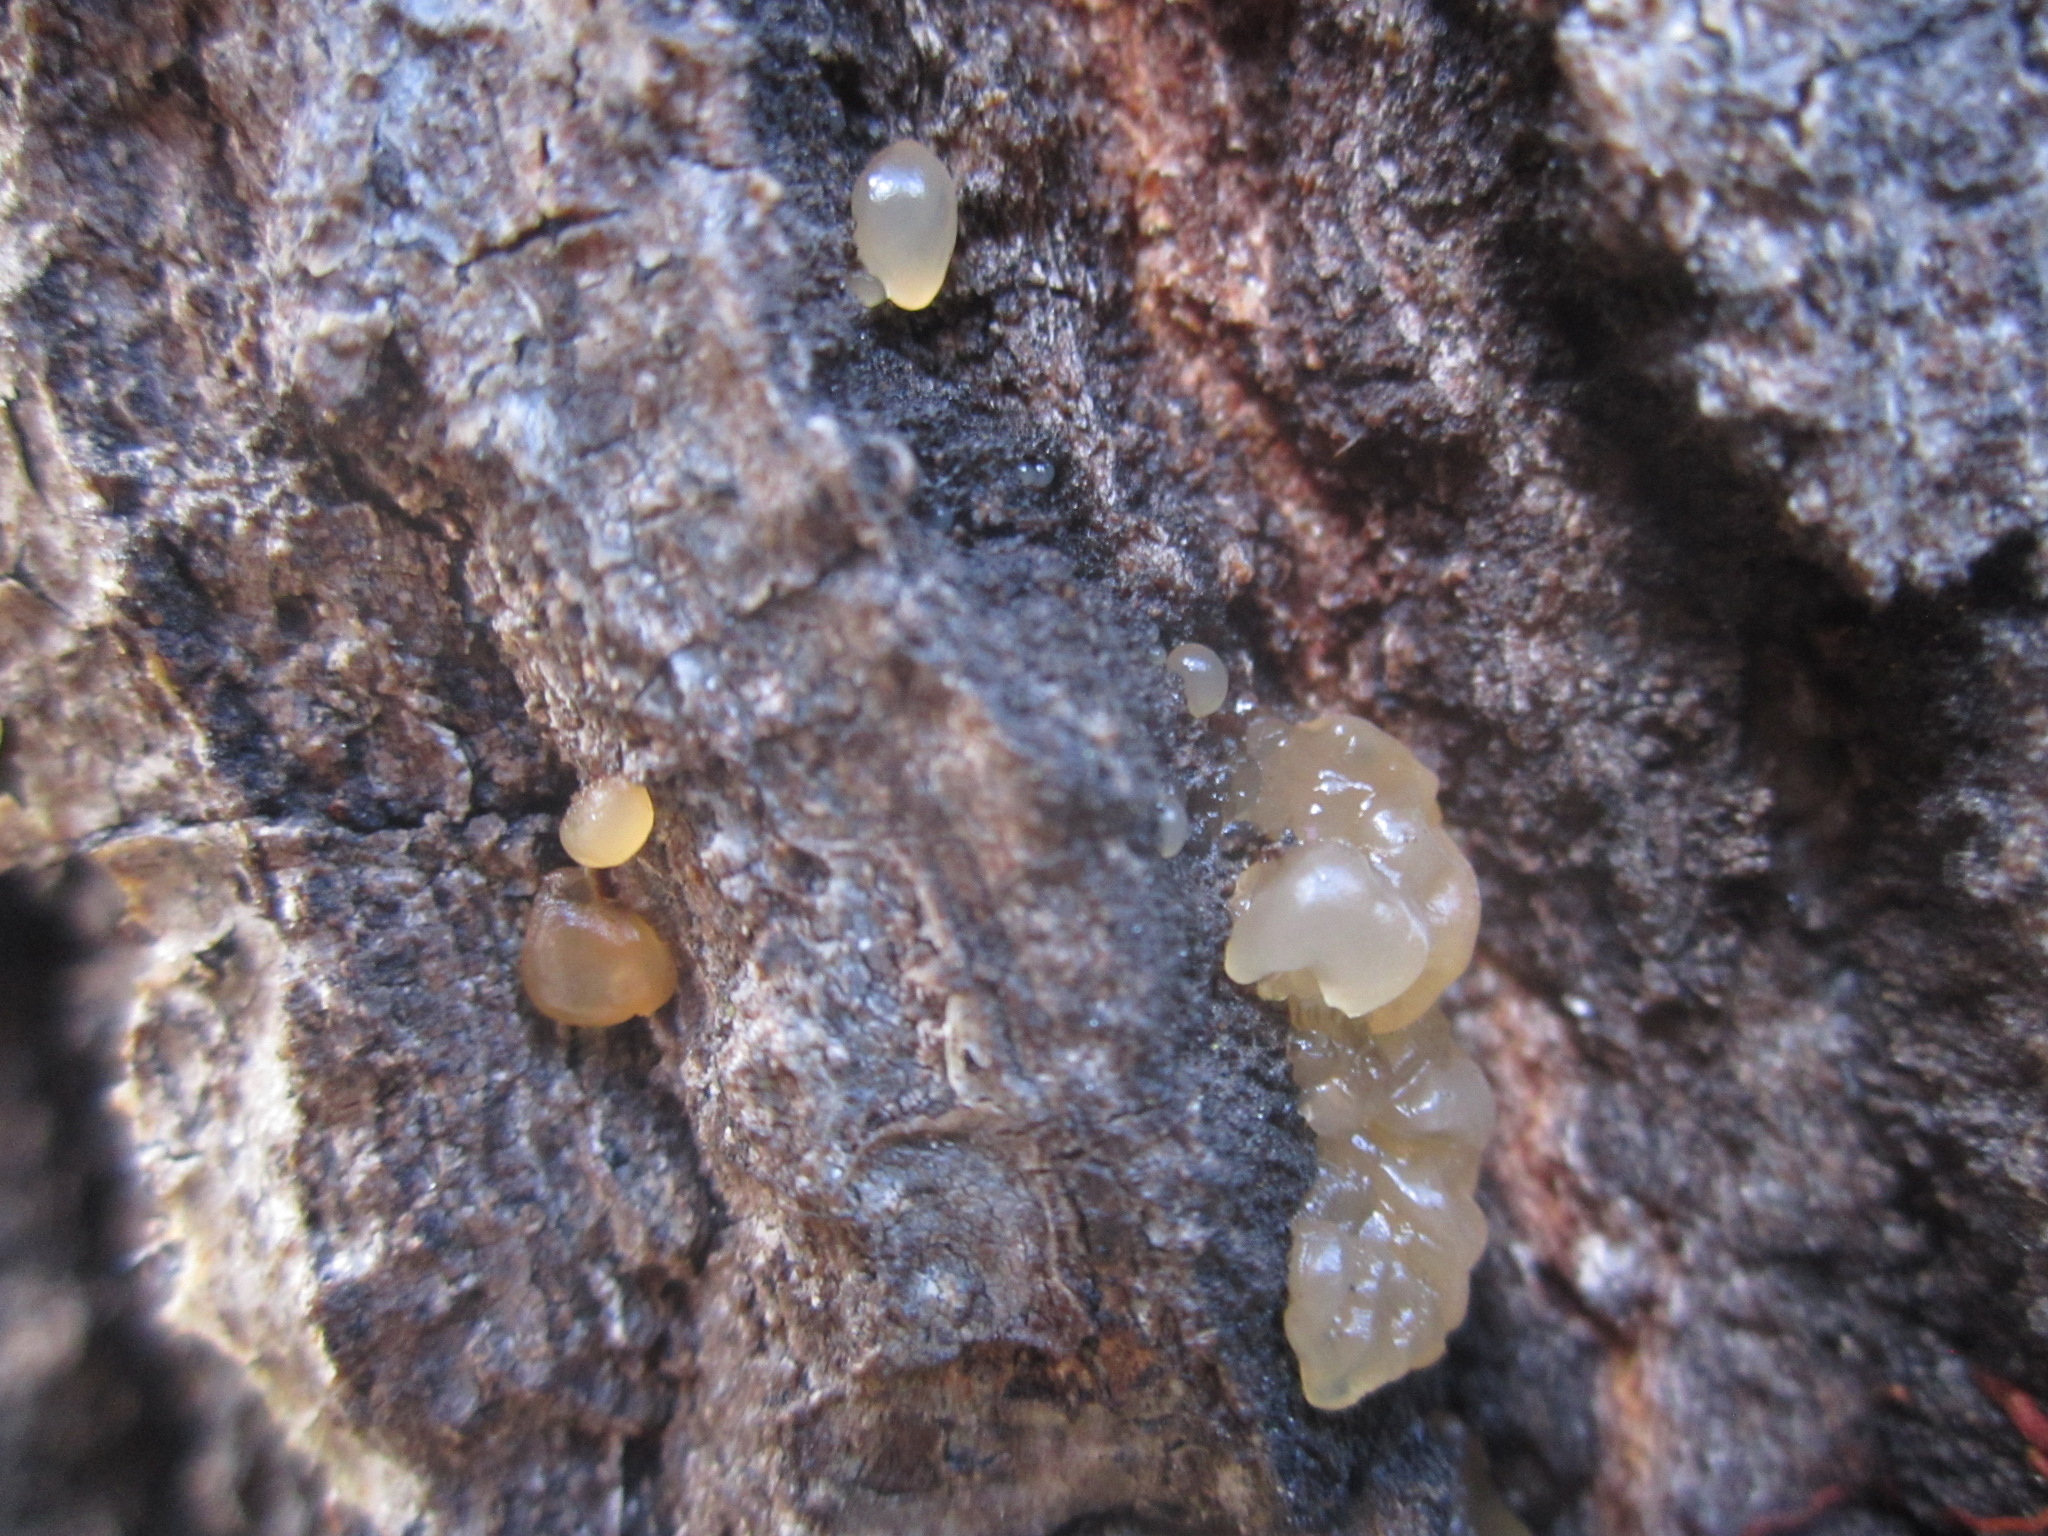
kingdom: Fungi
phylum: Basidiomycota
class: Agaricomycetes
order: Auriculariales
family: Hyaloriaceae
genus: Myxarium
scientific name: Myxarium nucleatum
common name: Crystal brain fungus
